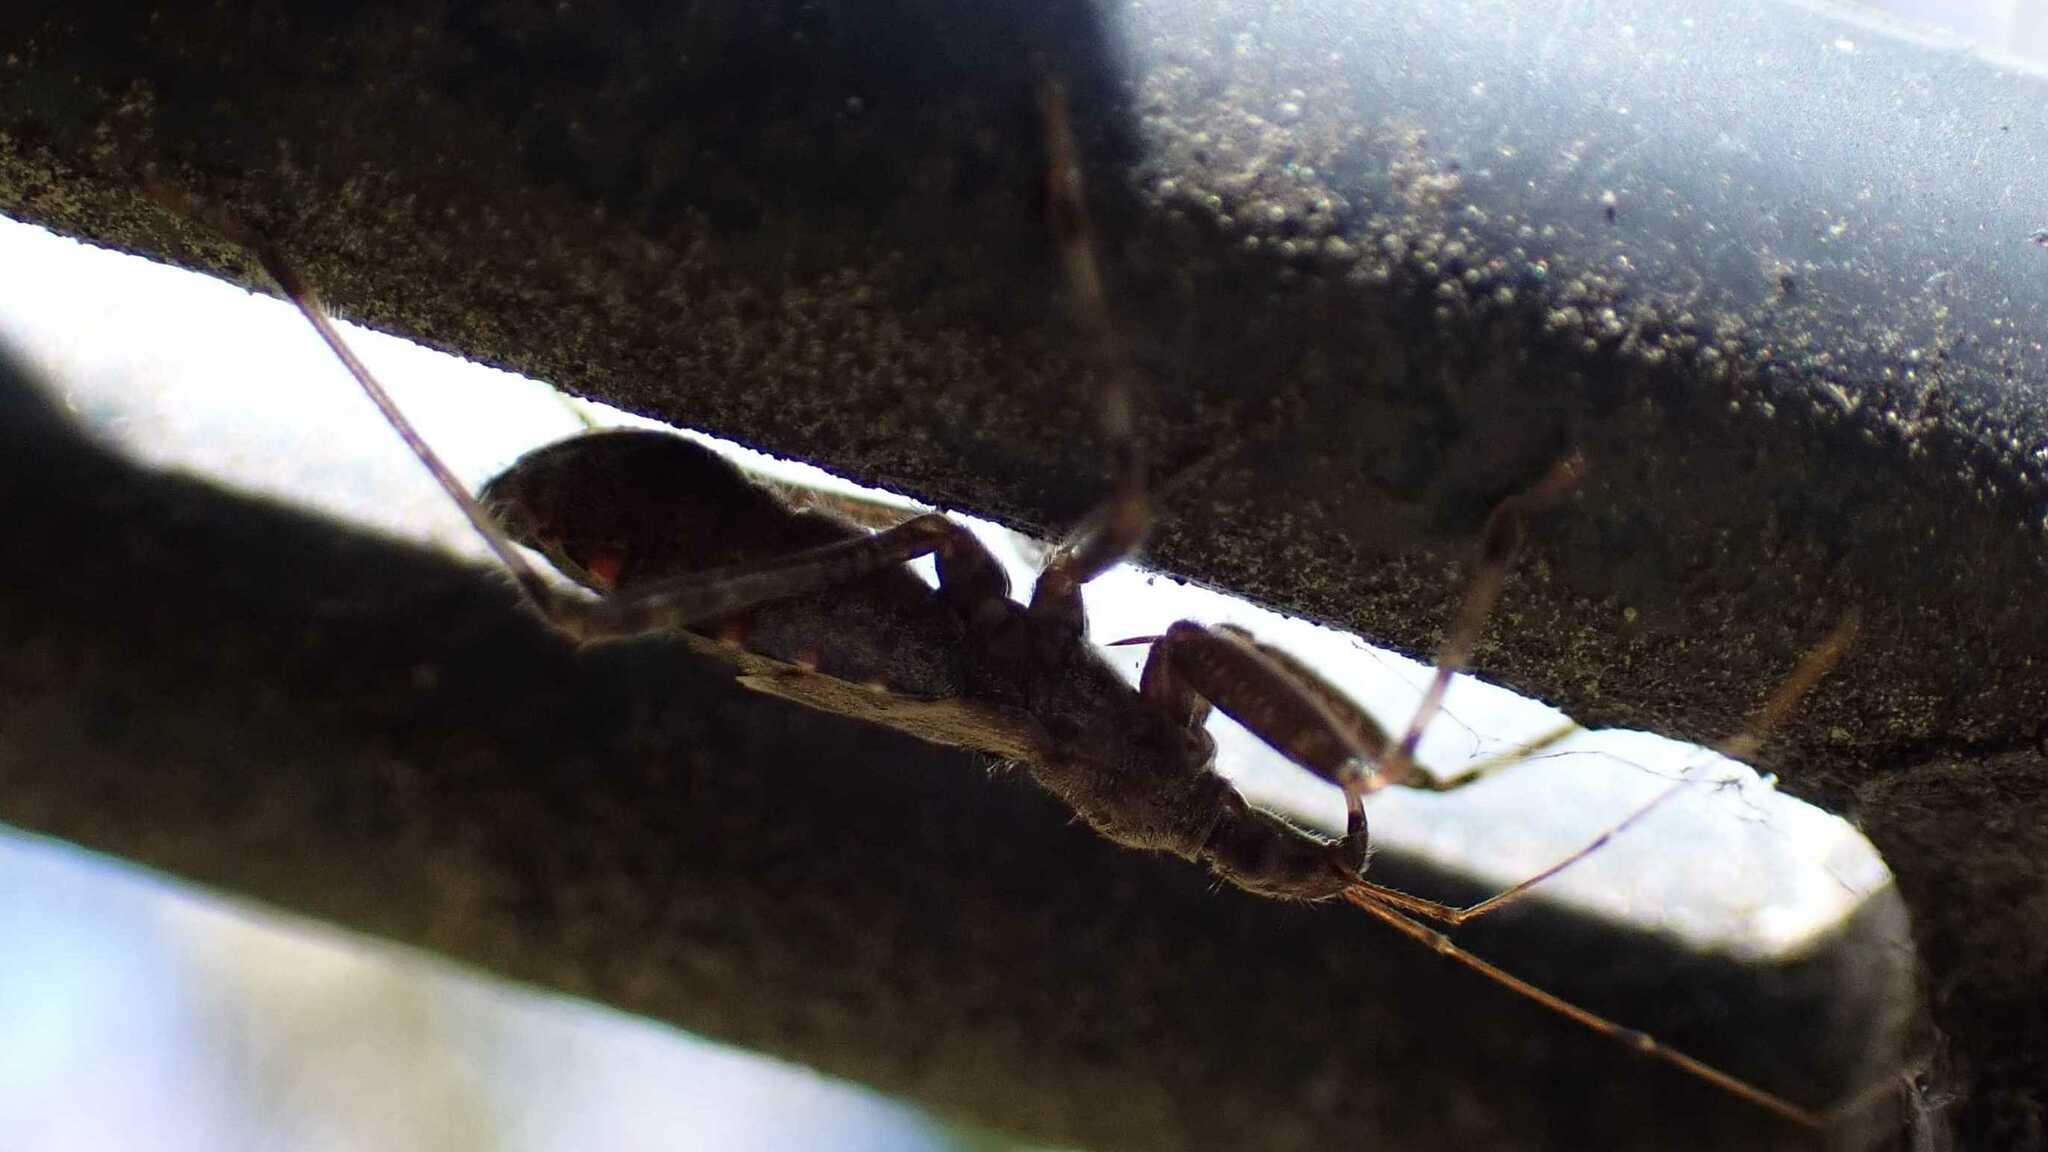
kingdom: Animalia
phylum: Arthropoda
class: Insecta
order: Hemiptera
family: Nabidae
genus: Himacerus
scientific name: Himacerus apterus
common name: Tree damsel bug
